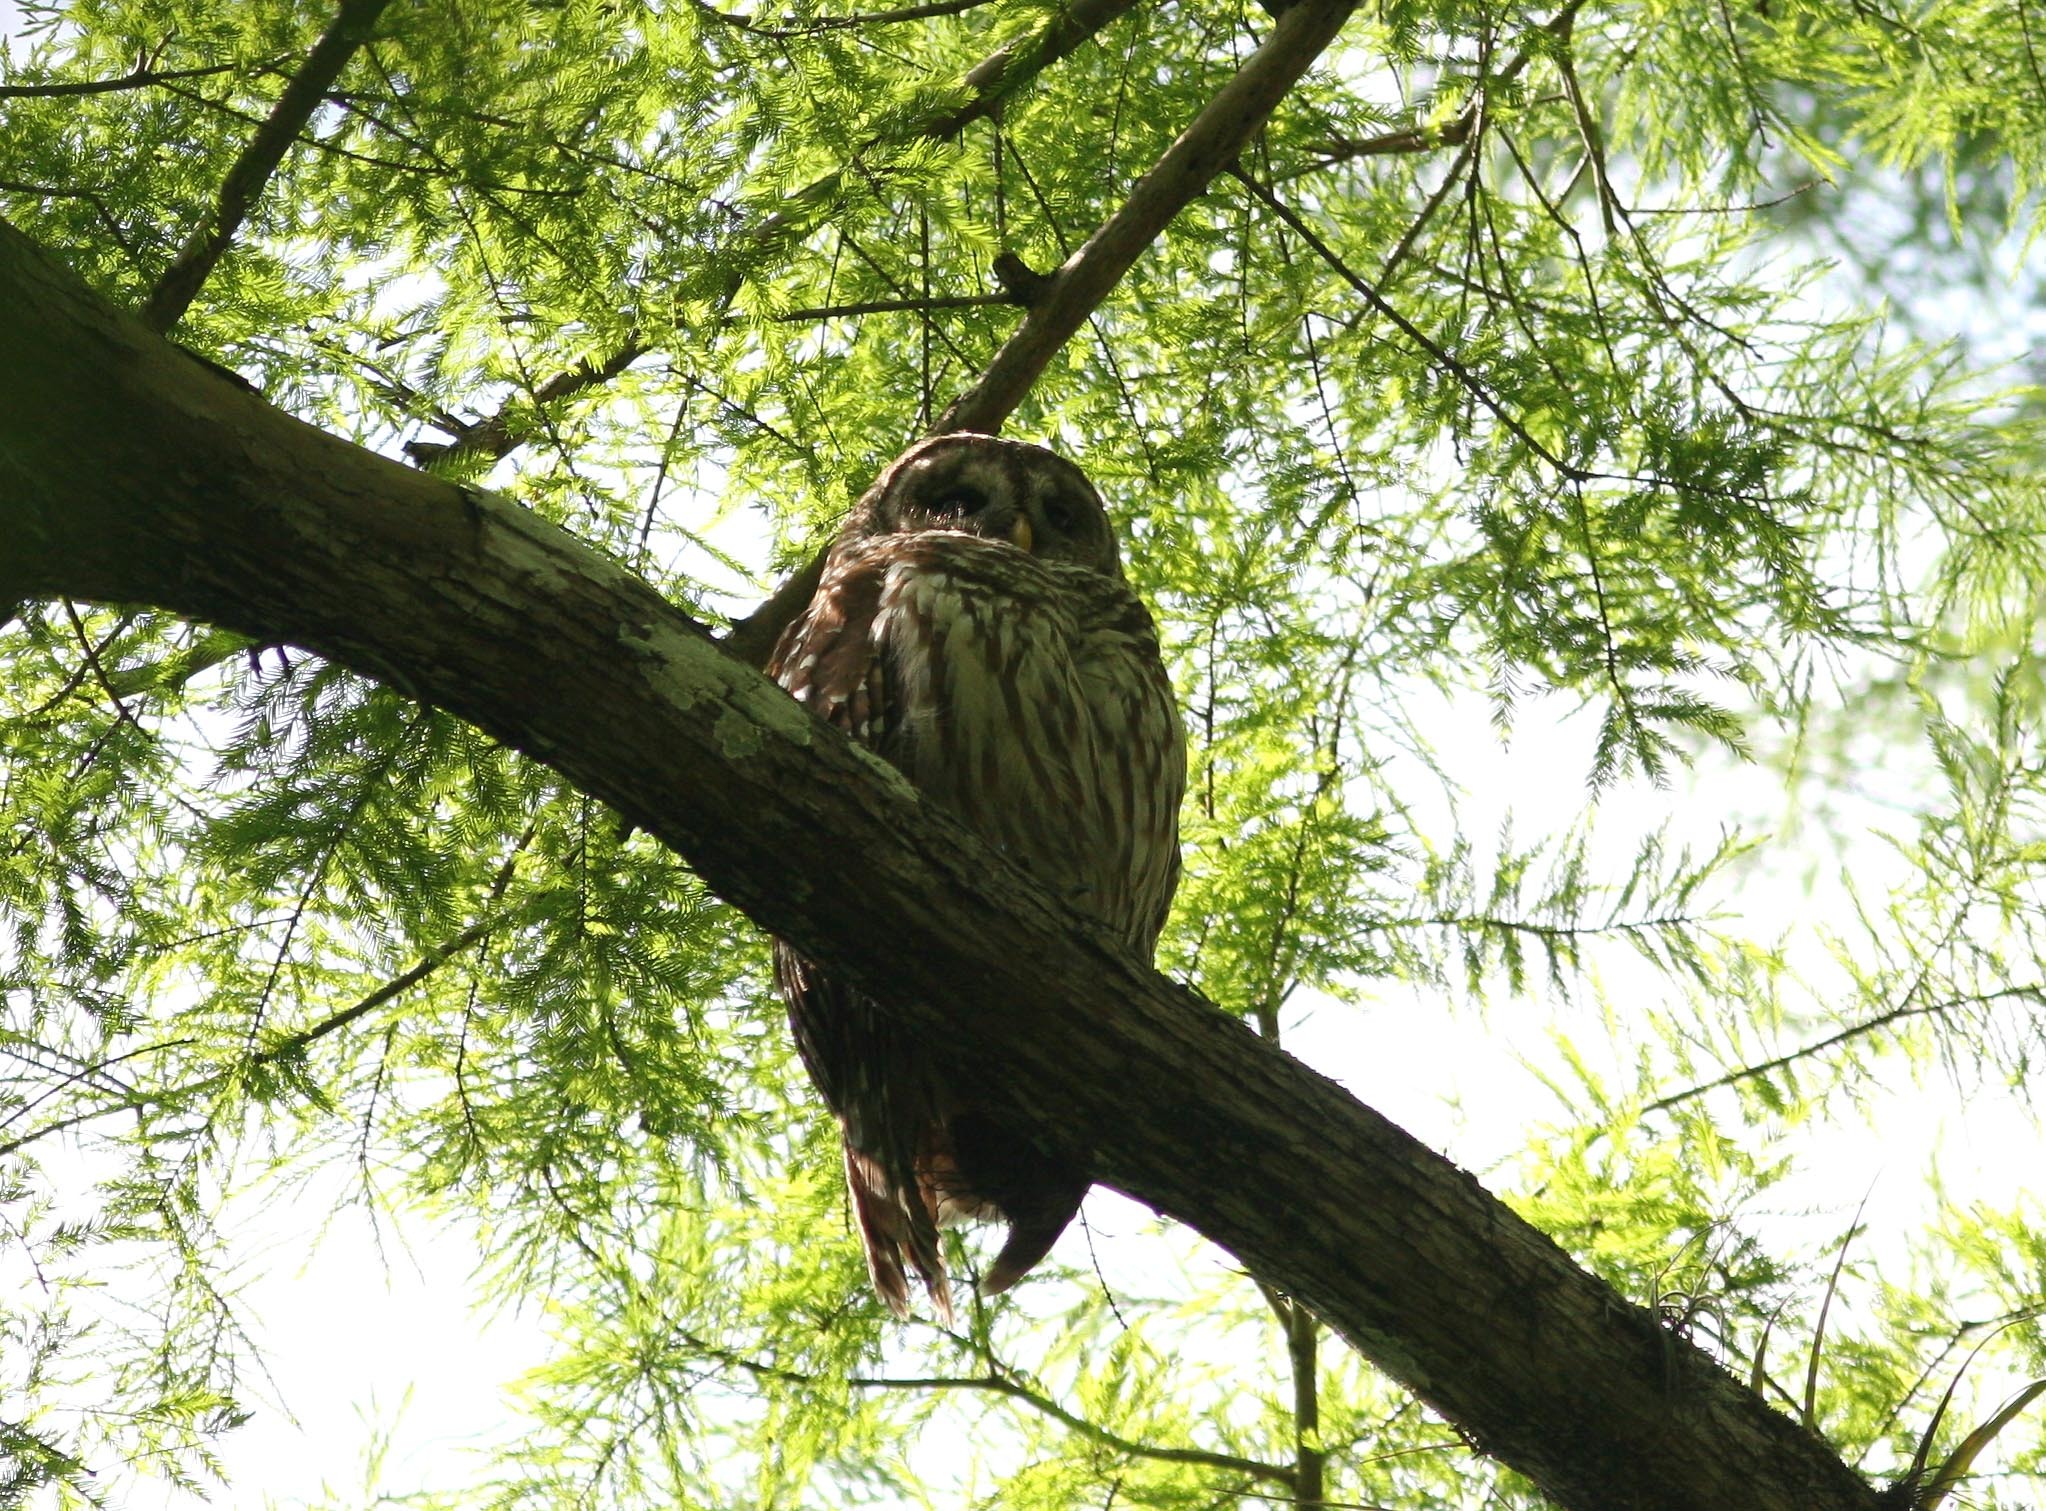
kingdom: Animalia
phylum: Chordata
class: Aves
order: Strigiformes
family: Strigidae
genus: Strix
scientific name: Strix varia
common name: Barred owl
